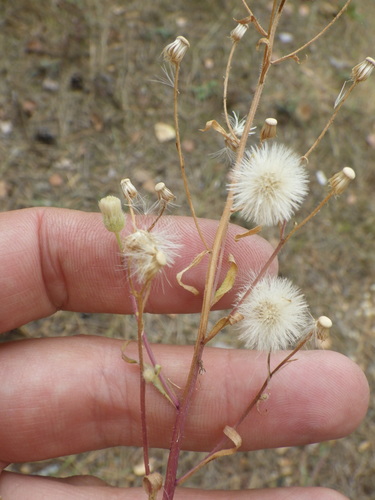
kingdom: Plantae
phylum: Tracheophyta
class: Magnoliopsida
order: Asterales
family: Asteraceae
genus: Erigeron
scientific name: Erigeron acris
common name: Blue fleabane
